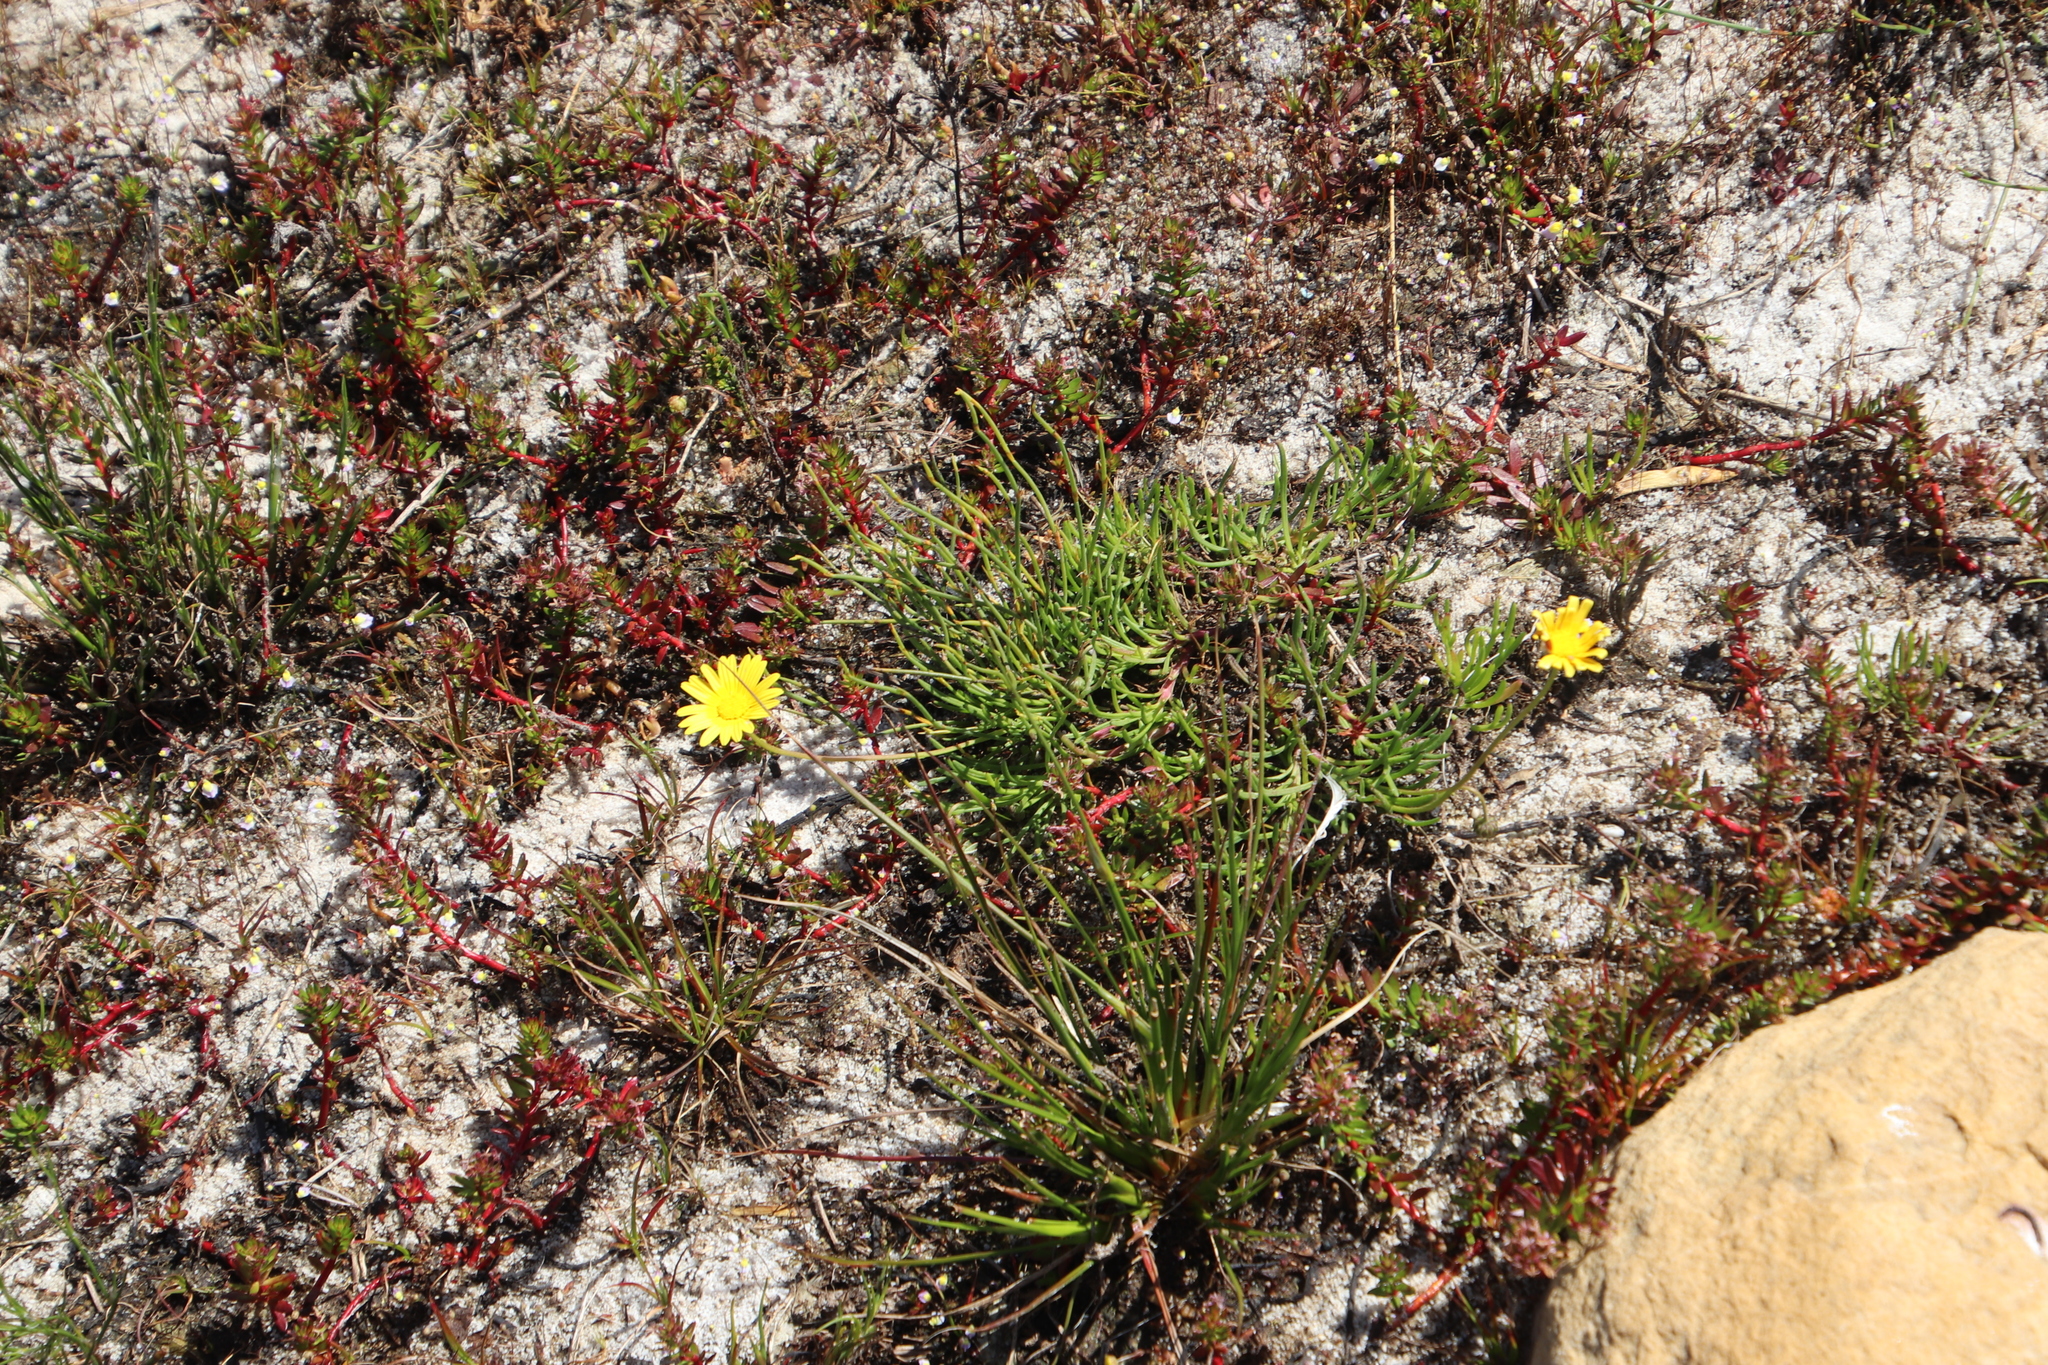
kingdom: Plantae
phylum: Tracheophyta
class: Magnoliopsida
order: Asterales
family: Asteraceae
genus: Ursinia
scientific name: Ursinia tenuifolia
